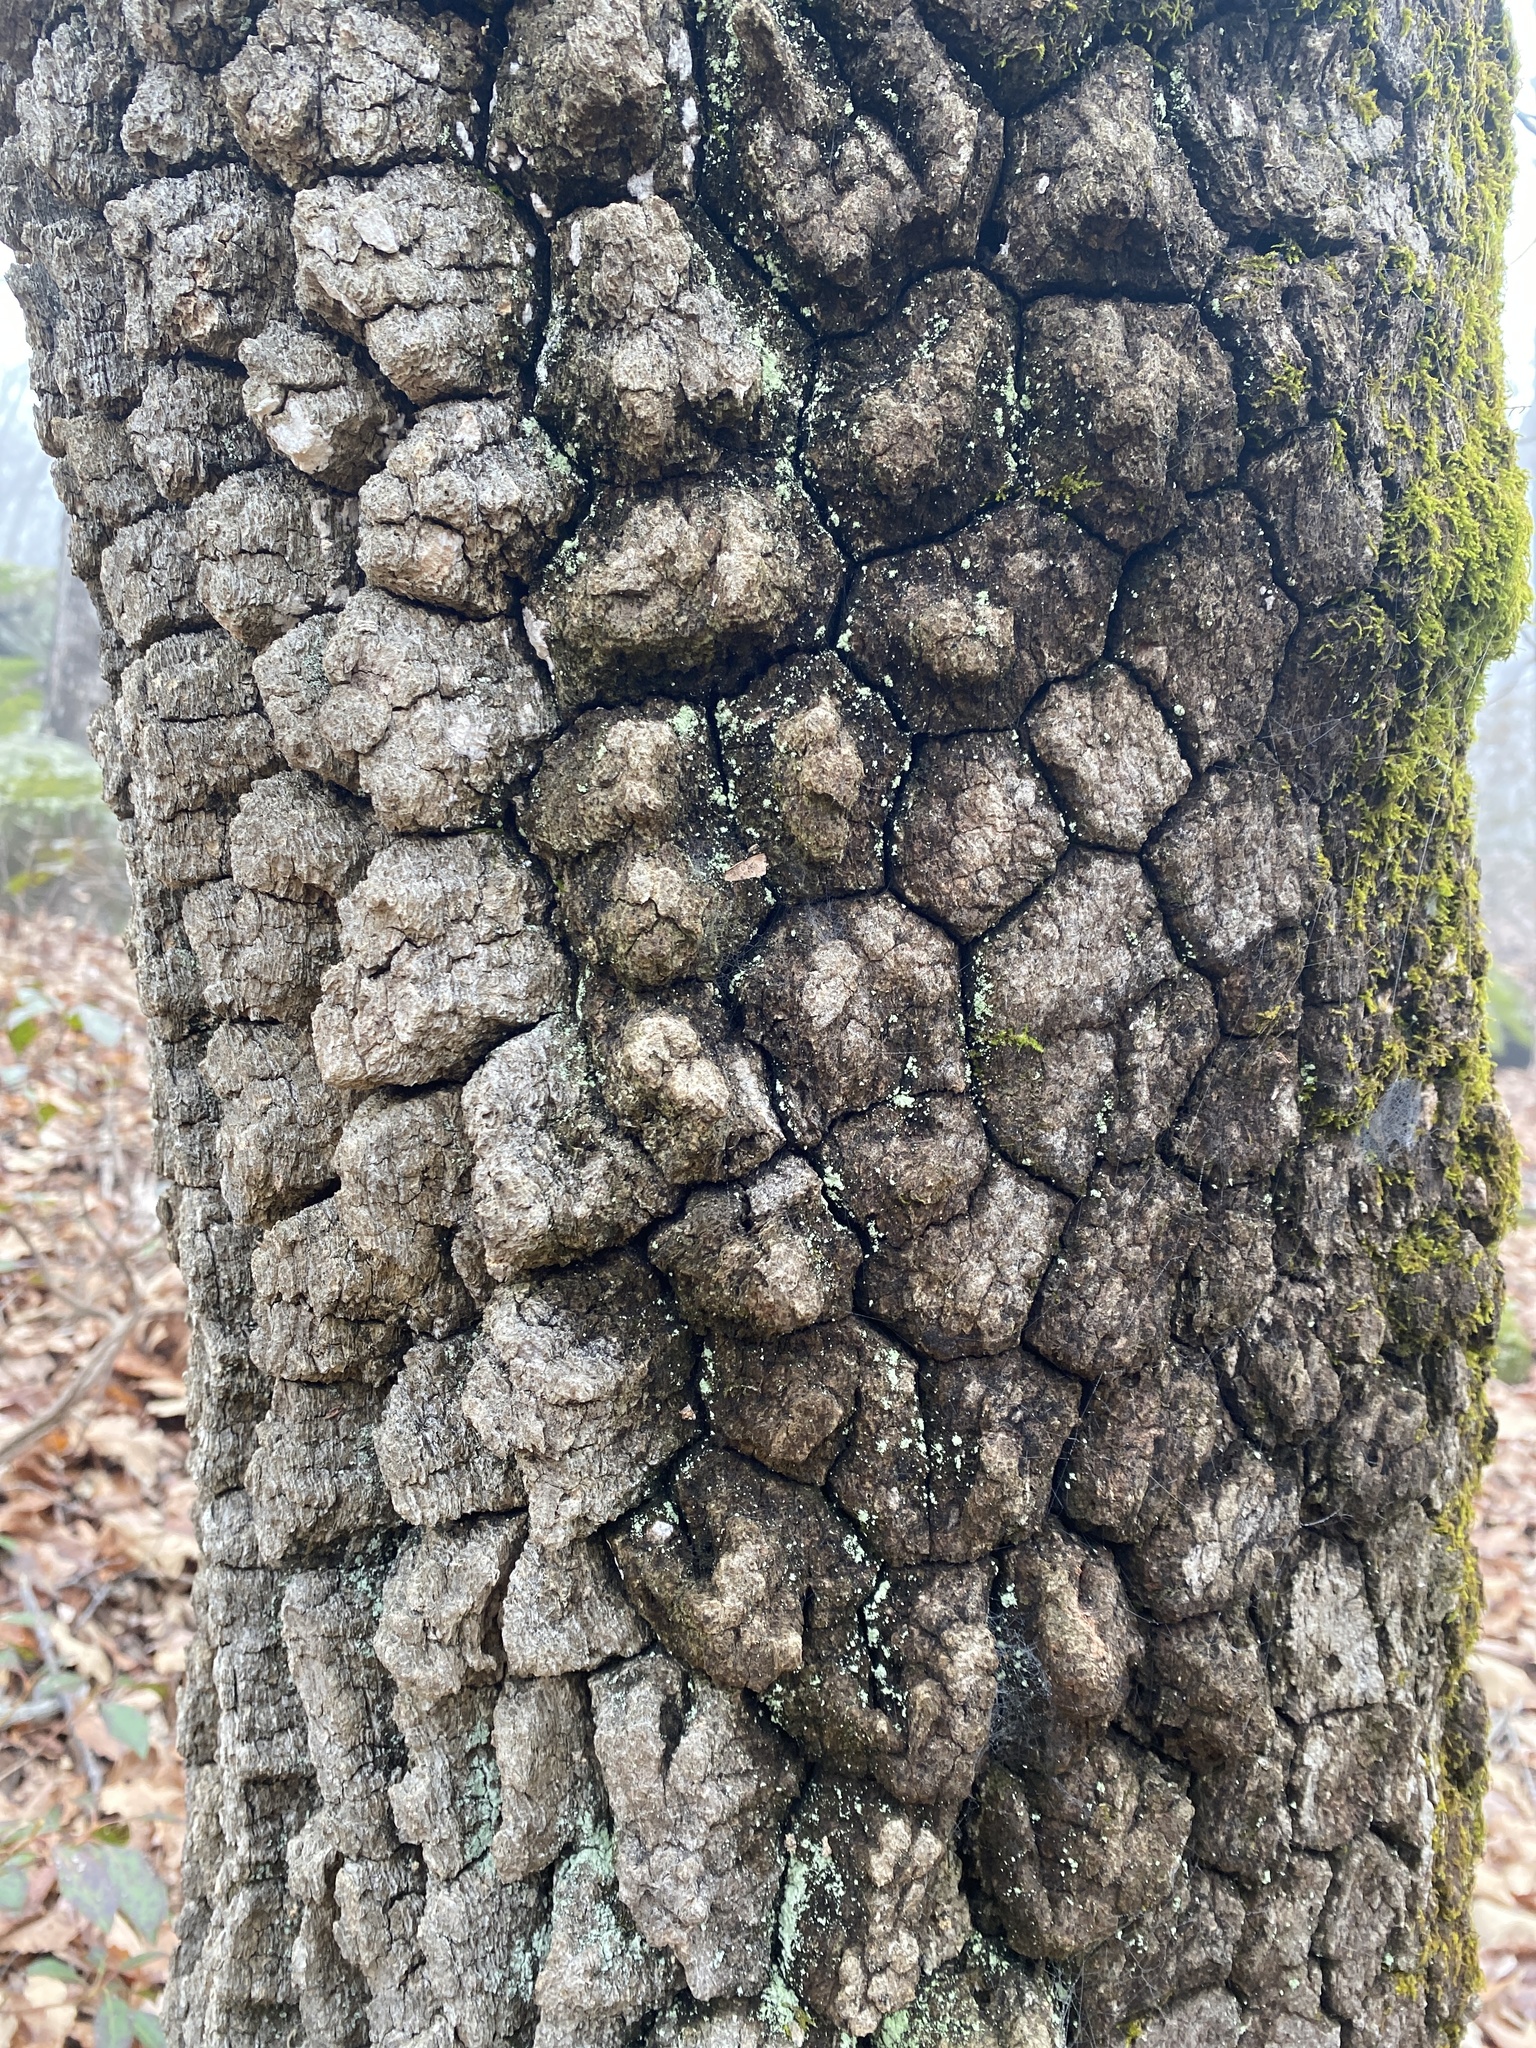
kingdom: Plantae
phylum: Tracheophyta
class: Magnoliopsida
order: Cornales
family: Nyssaceae
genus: Nyssa
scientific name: Nyssa sylvatica
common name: Black tupelo
